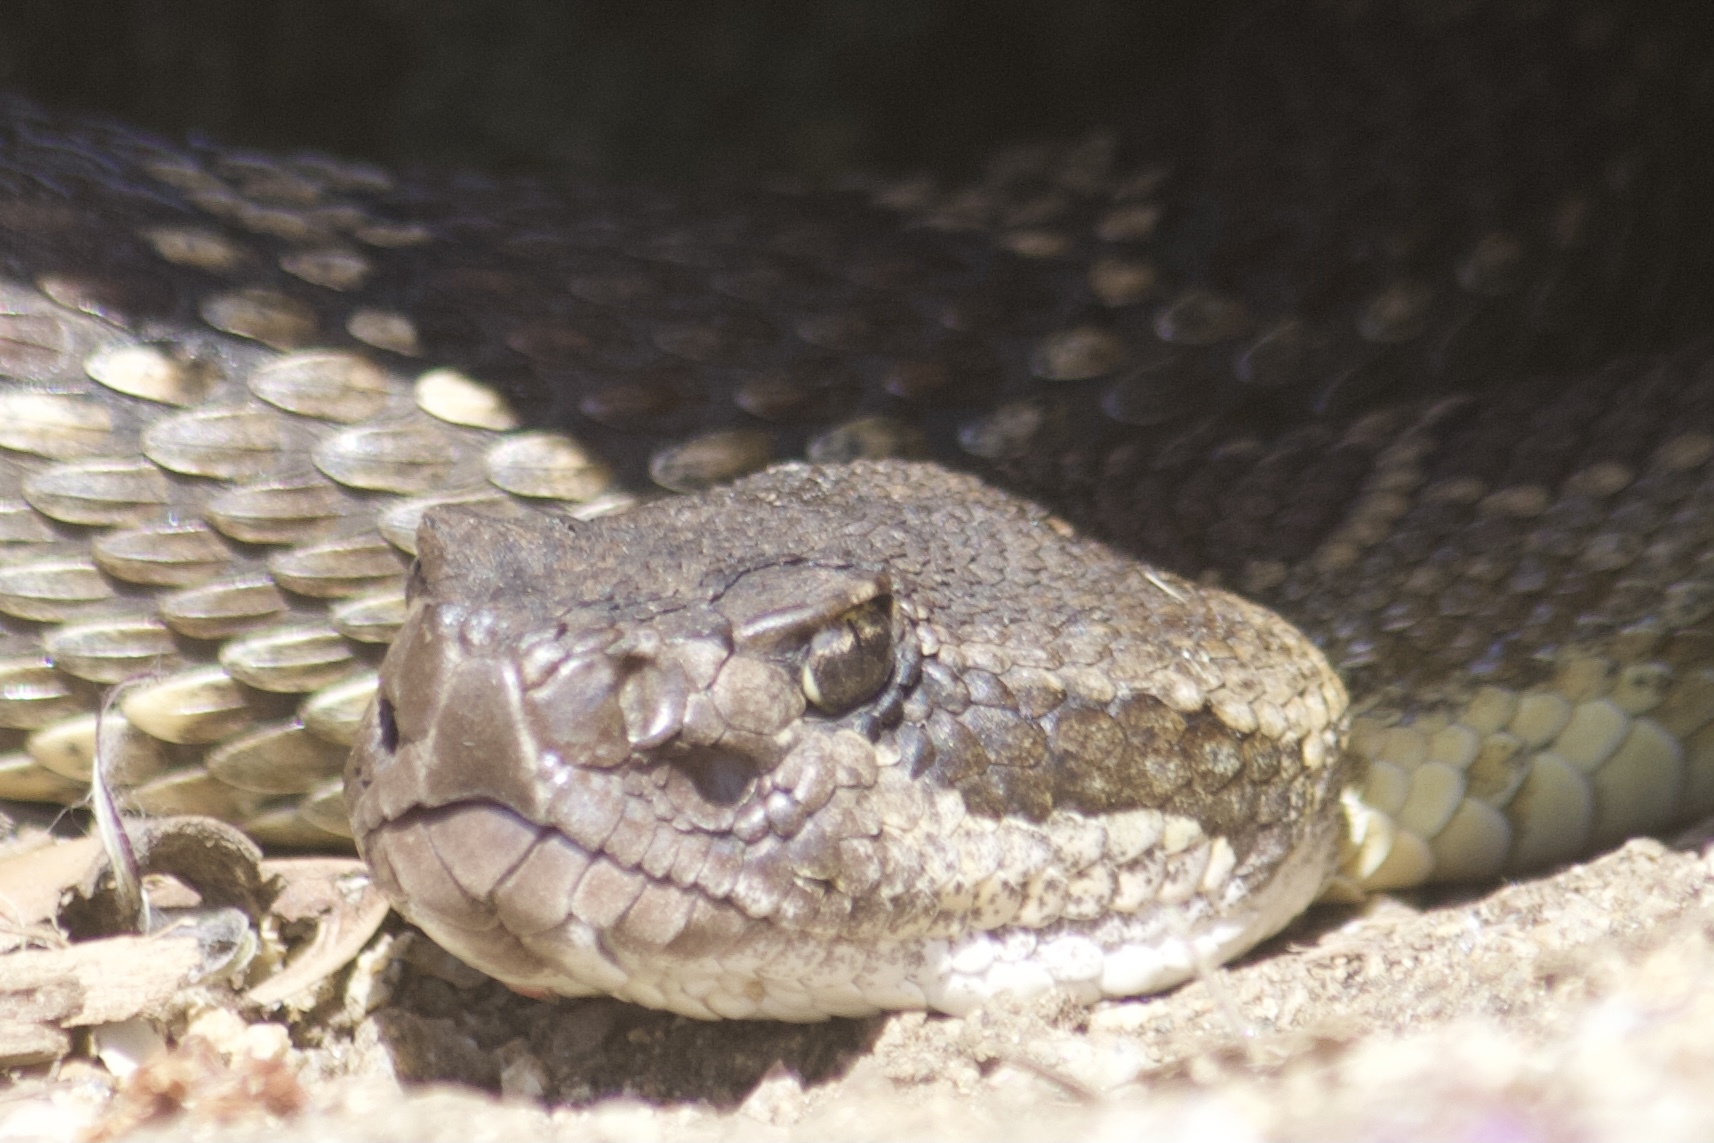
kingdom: Animalia
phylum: Chordata
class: Squamata
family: Viperidae
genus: Crotalus
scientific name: Crotalus oreganus
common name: Abyssus
